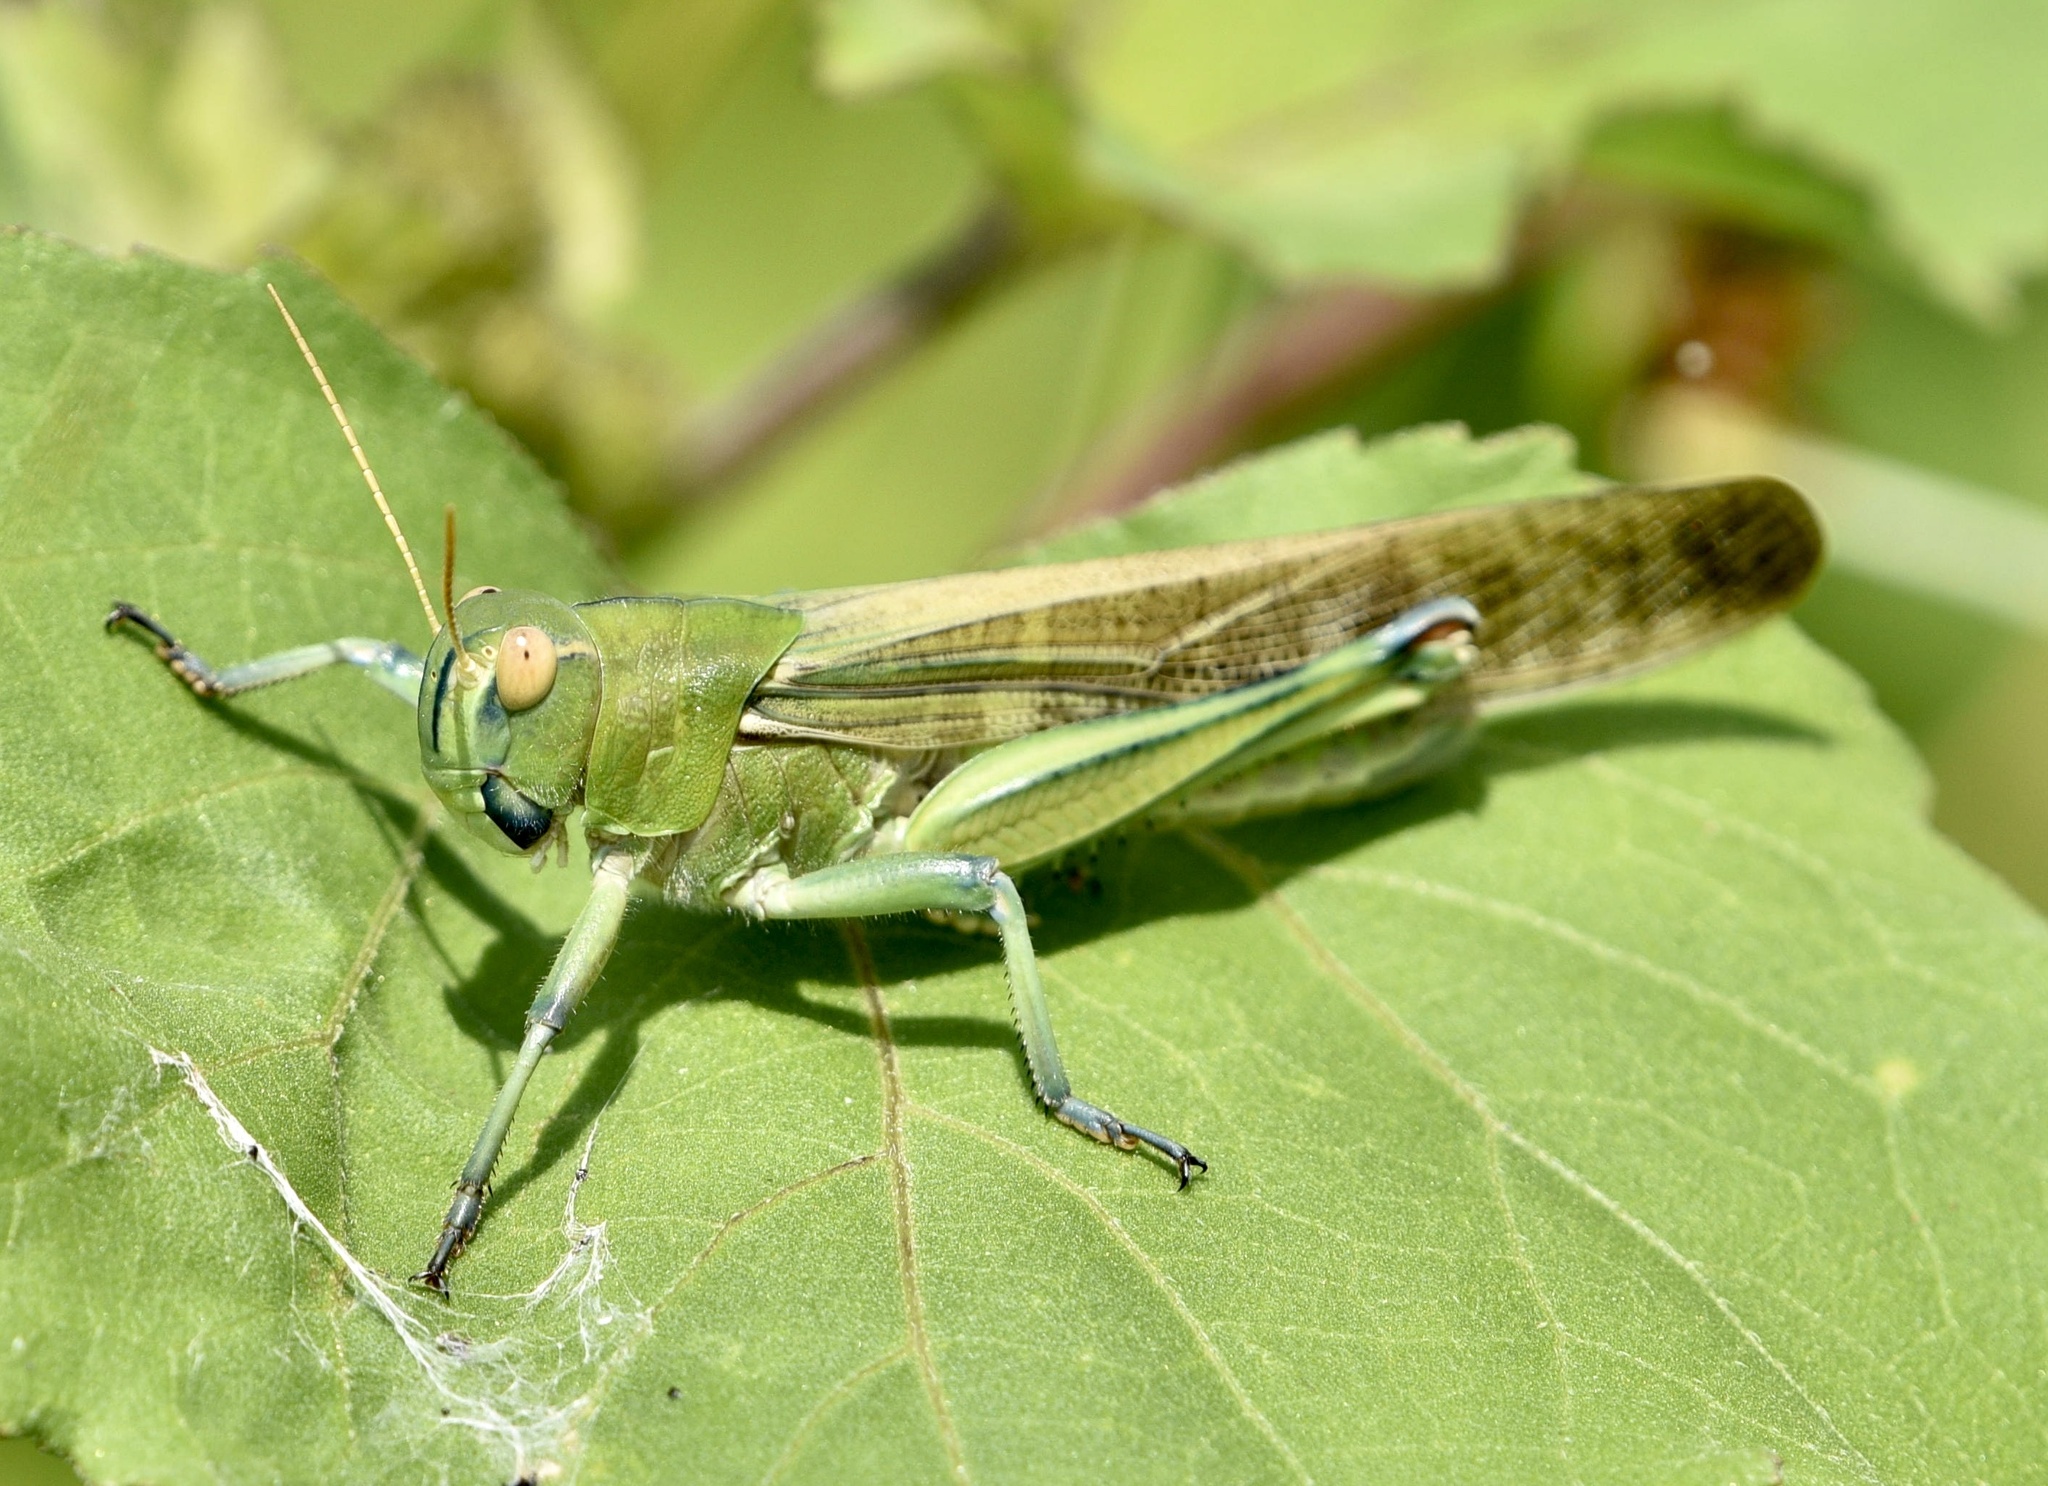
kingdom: Animalia
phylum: Arthropoda
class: Insecta
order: Orthoptera
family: Acrididae
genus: Locusta
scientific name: Locusta migratoria
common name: Migratory locust
